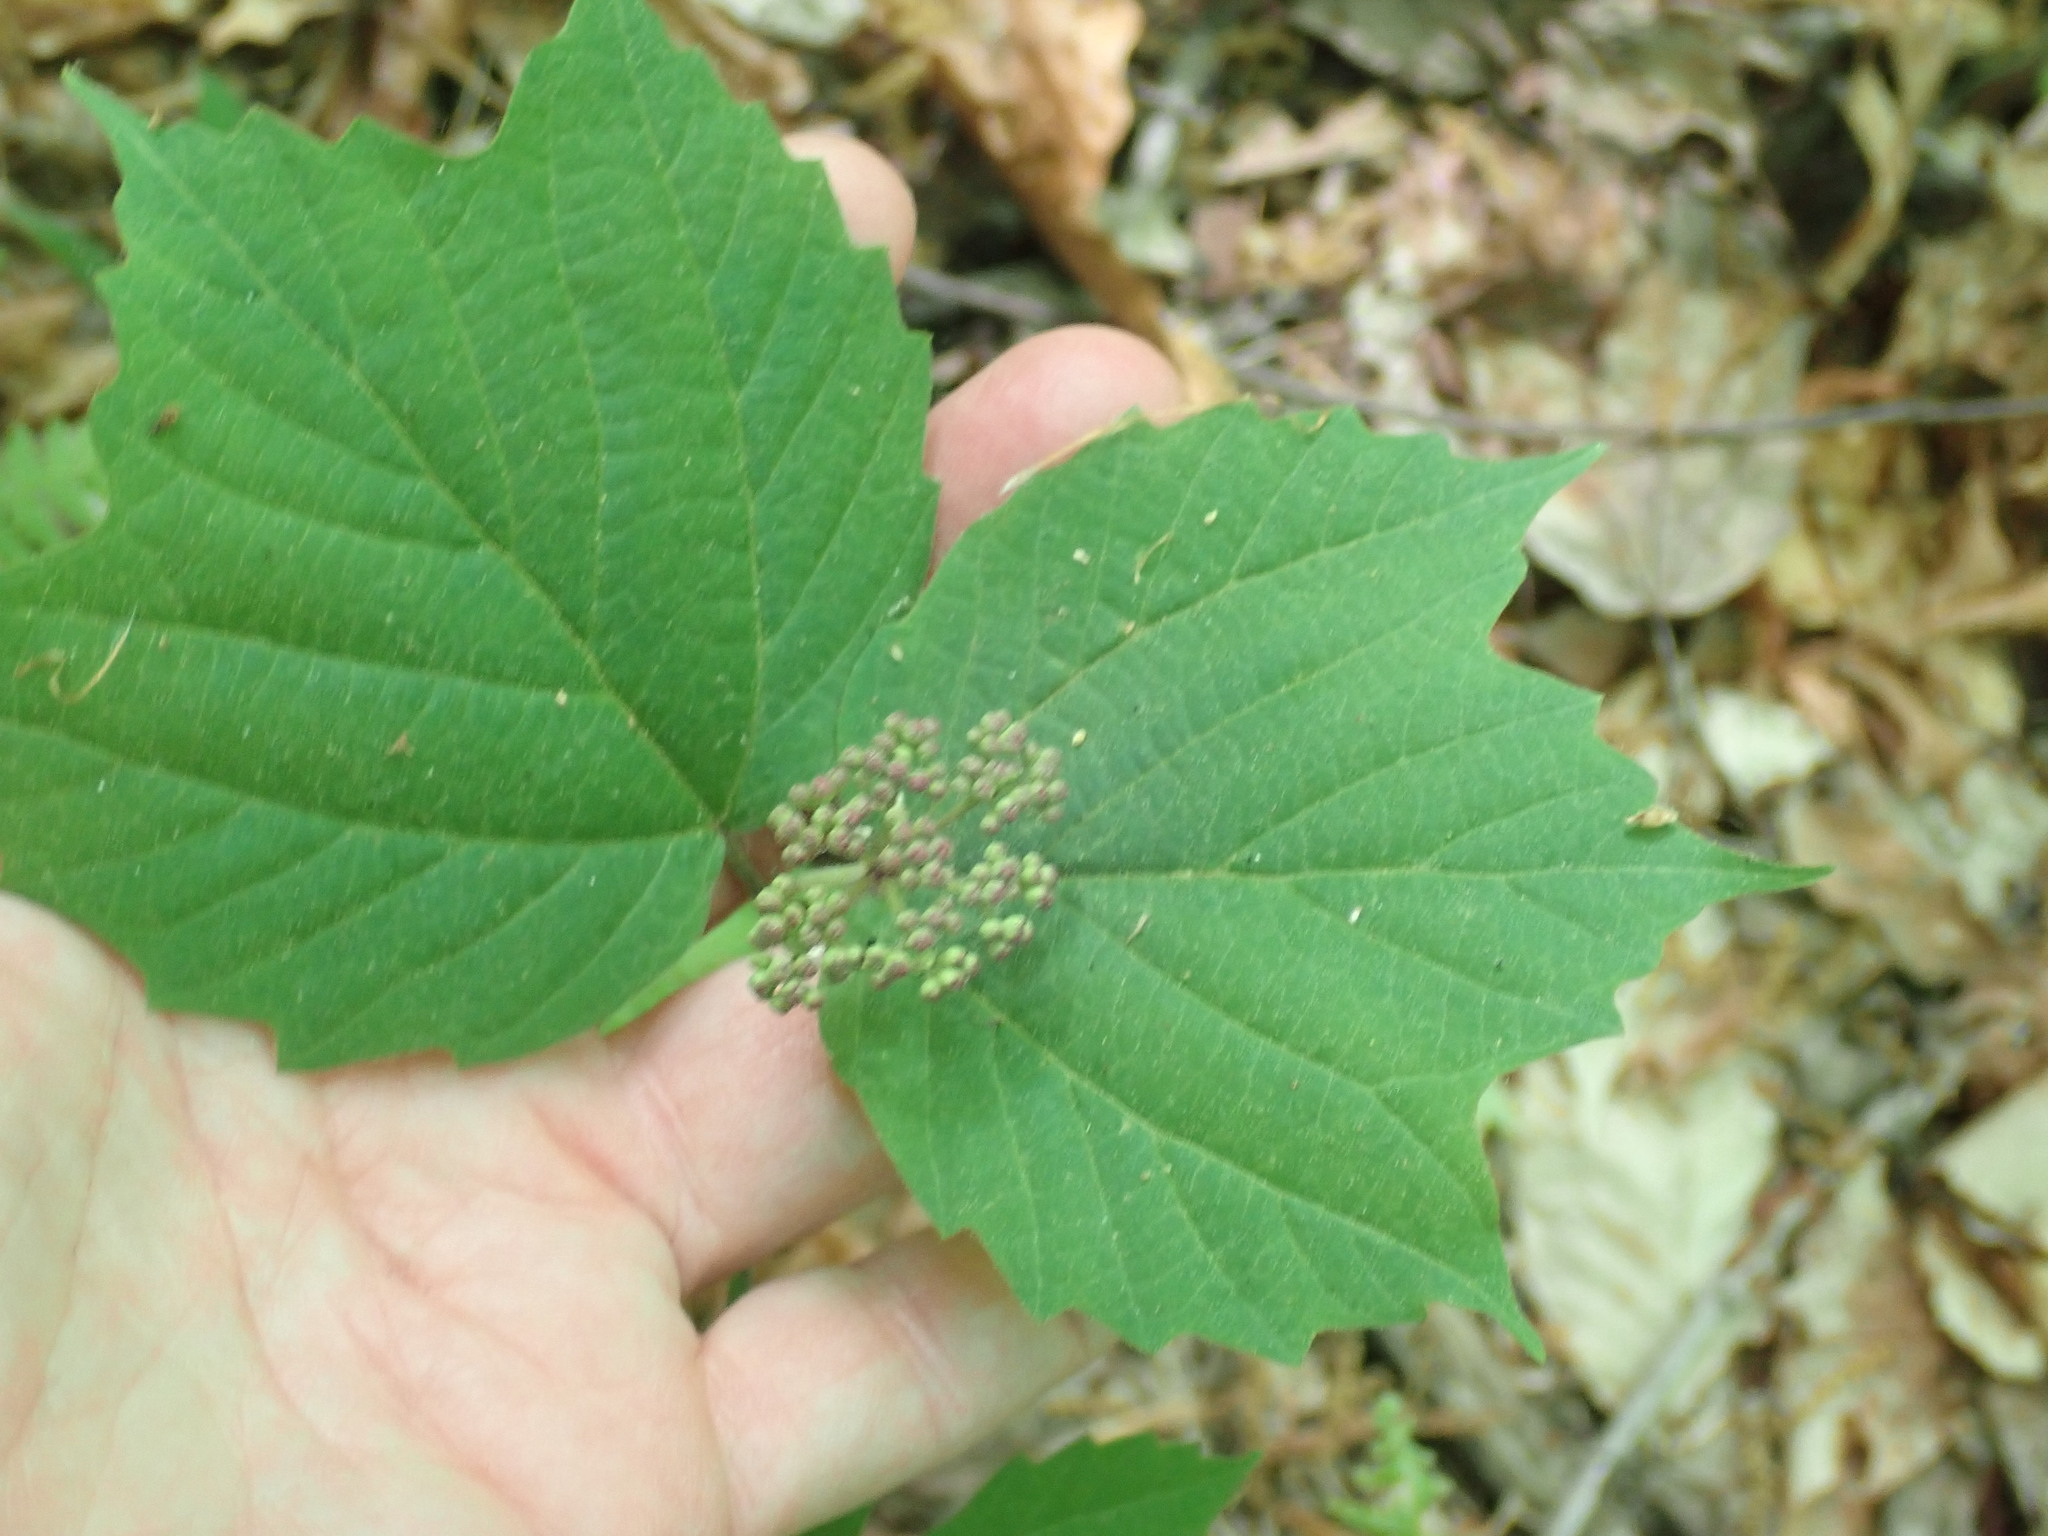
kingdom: Plantae
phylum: Tracheophyta
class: Magnoliopsida
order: Dipsacales
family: Viburnaceae
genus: Viburnum
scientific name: Viburnum acerifolium
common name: Dockmackie
